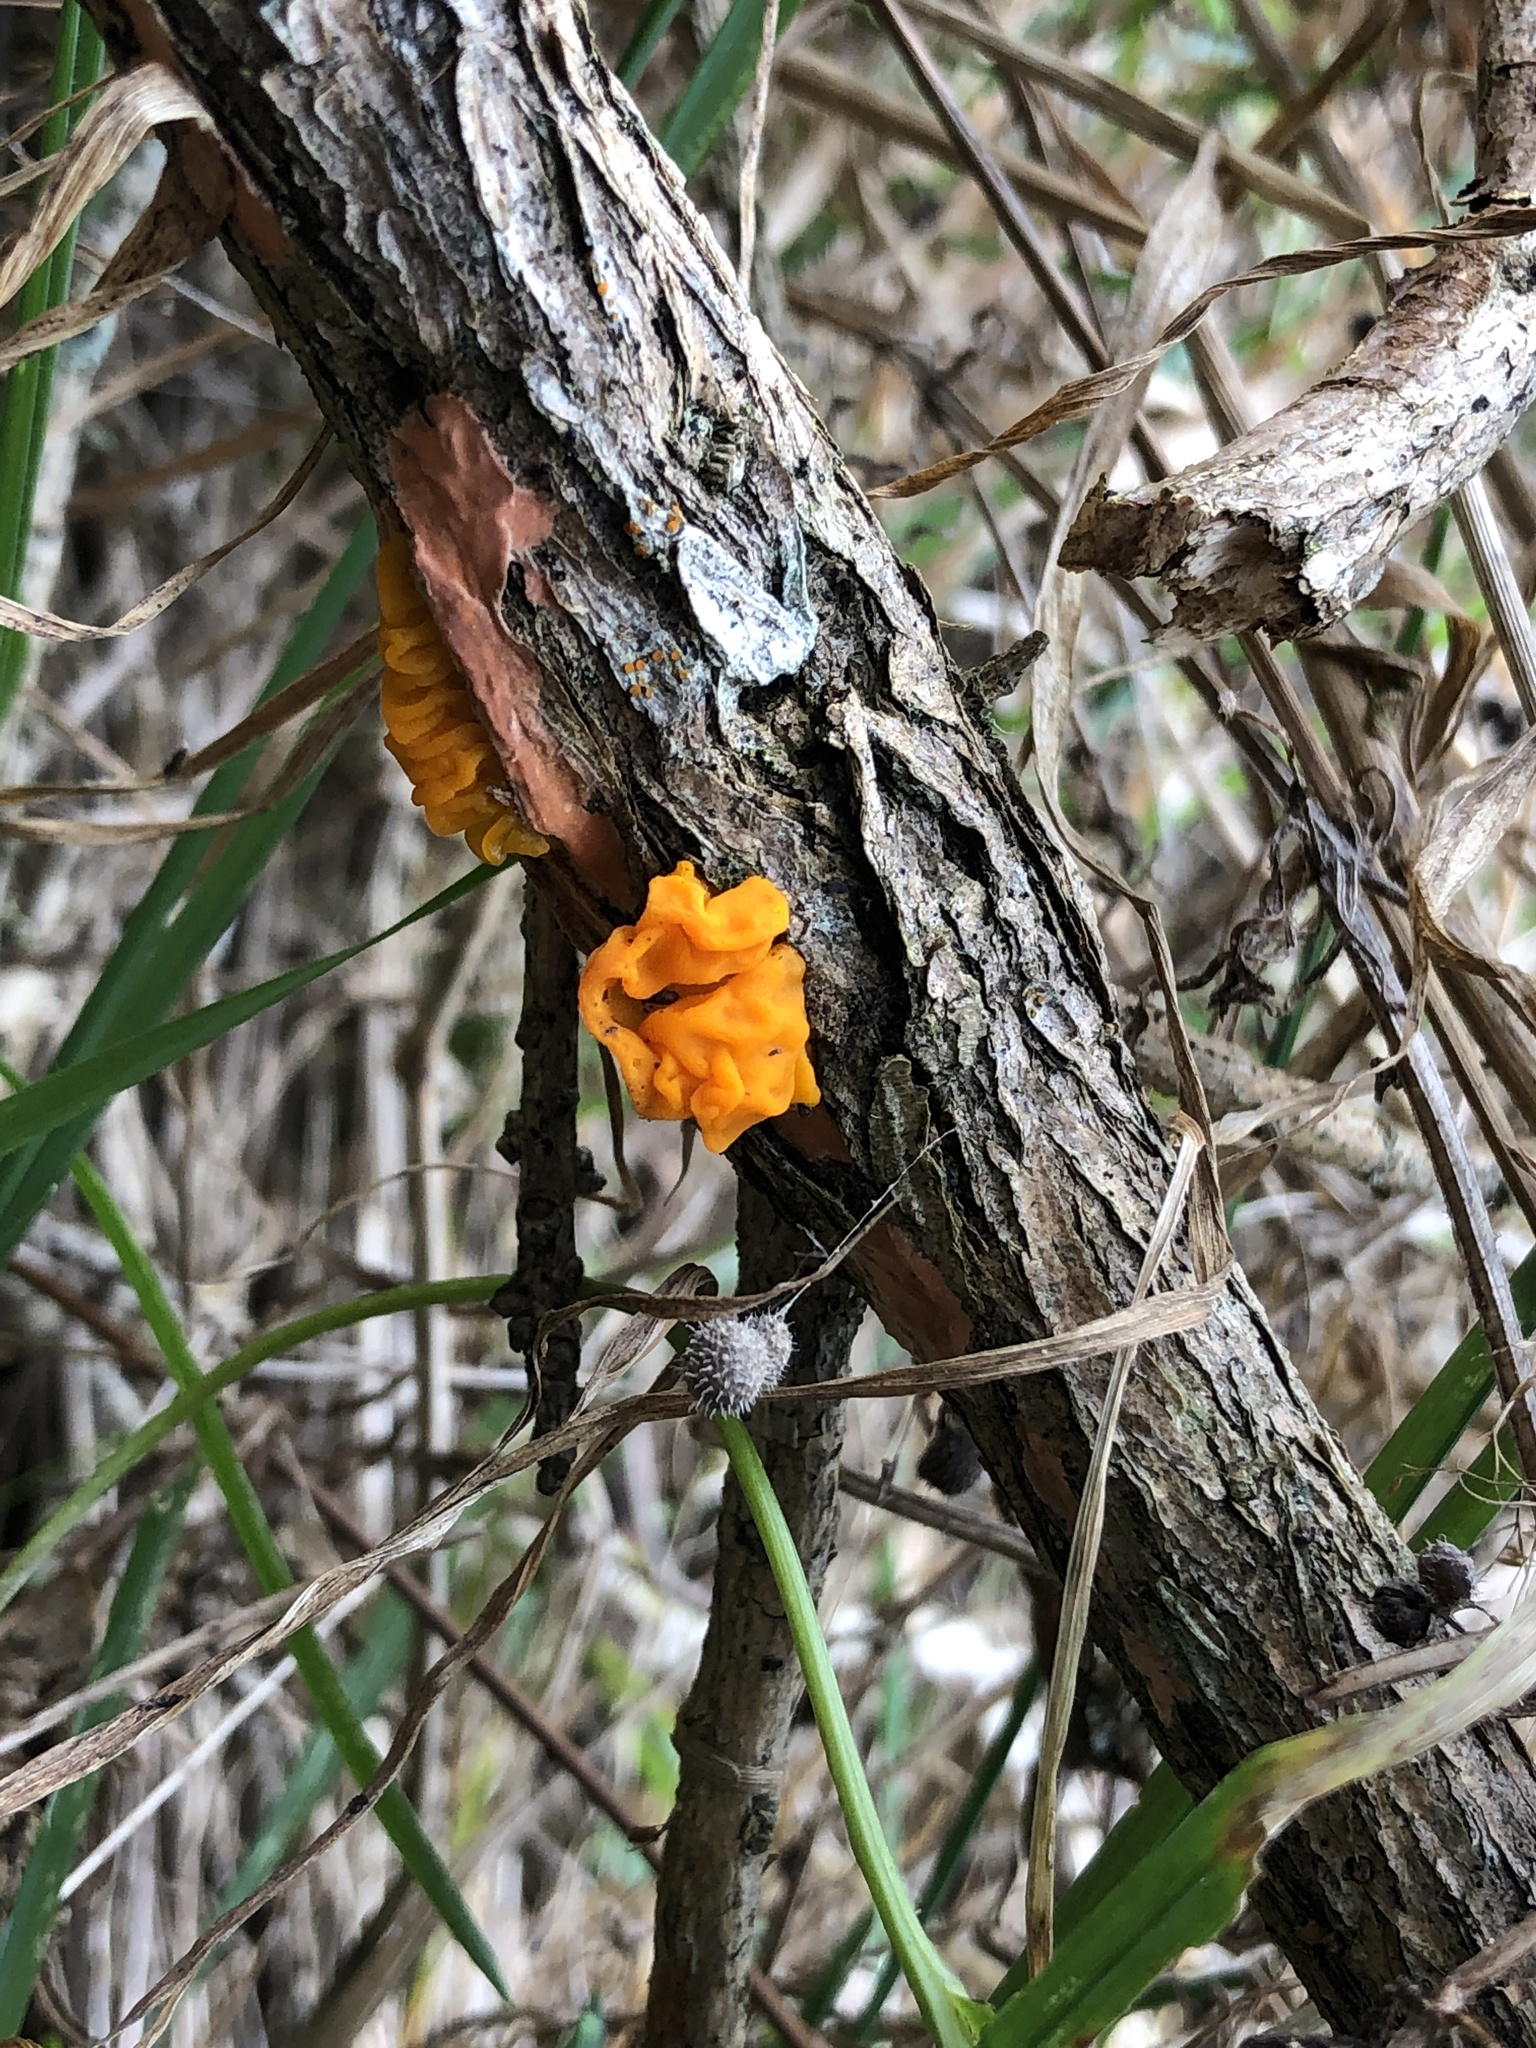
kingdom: Fungi
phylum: Basidiomycota
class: Tremellomycetes
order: Tremellales
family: Tremellaceae
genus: Tremella
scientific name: Tremella mesenterica
